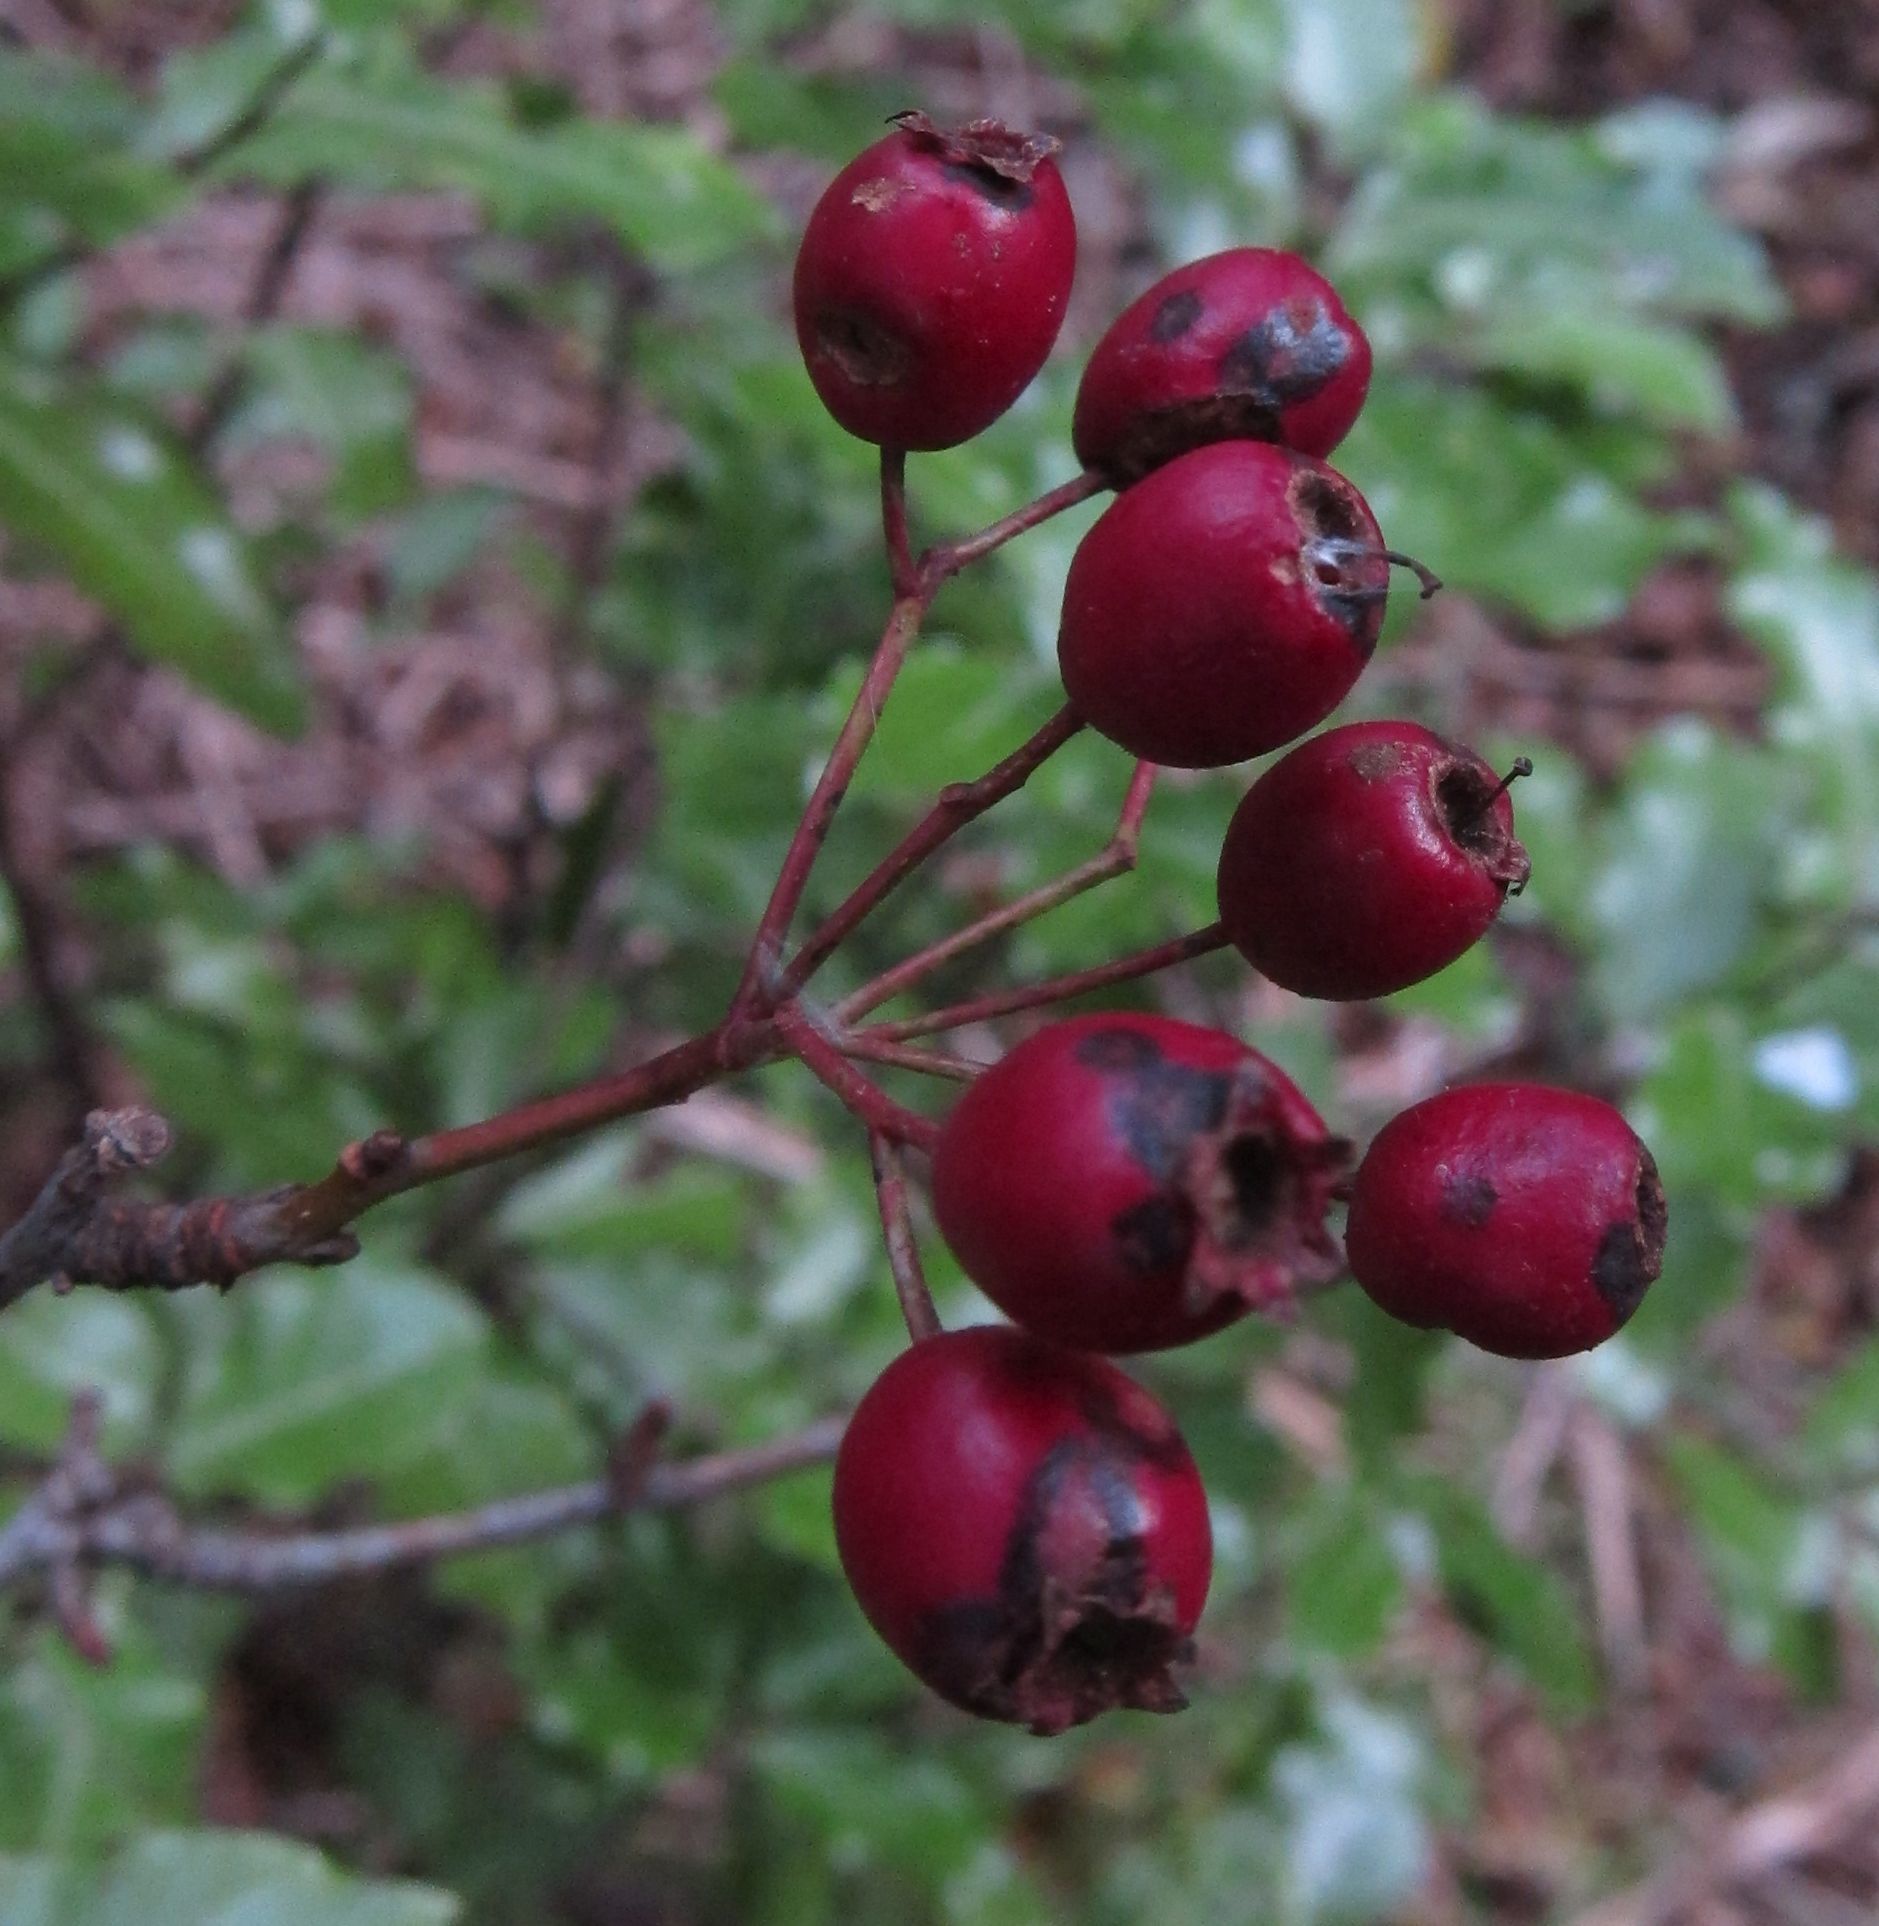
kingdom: Plantae
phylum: Tracheophyta
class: Magnoliopsida
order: Rosales
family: Rosaceae
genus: Crataegus
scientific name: Crataegus monogyna
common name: Hawthorn
